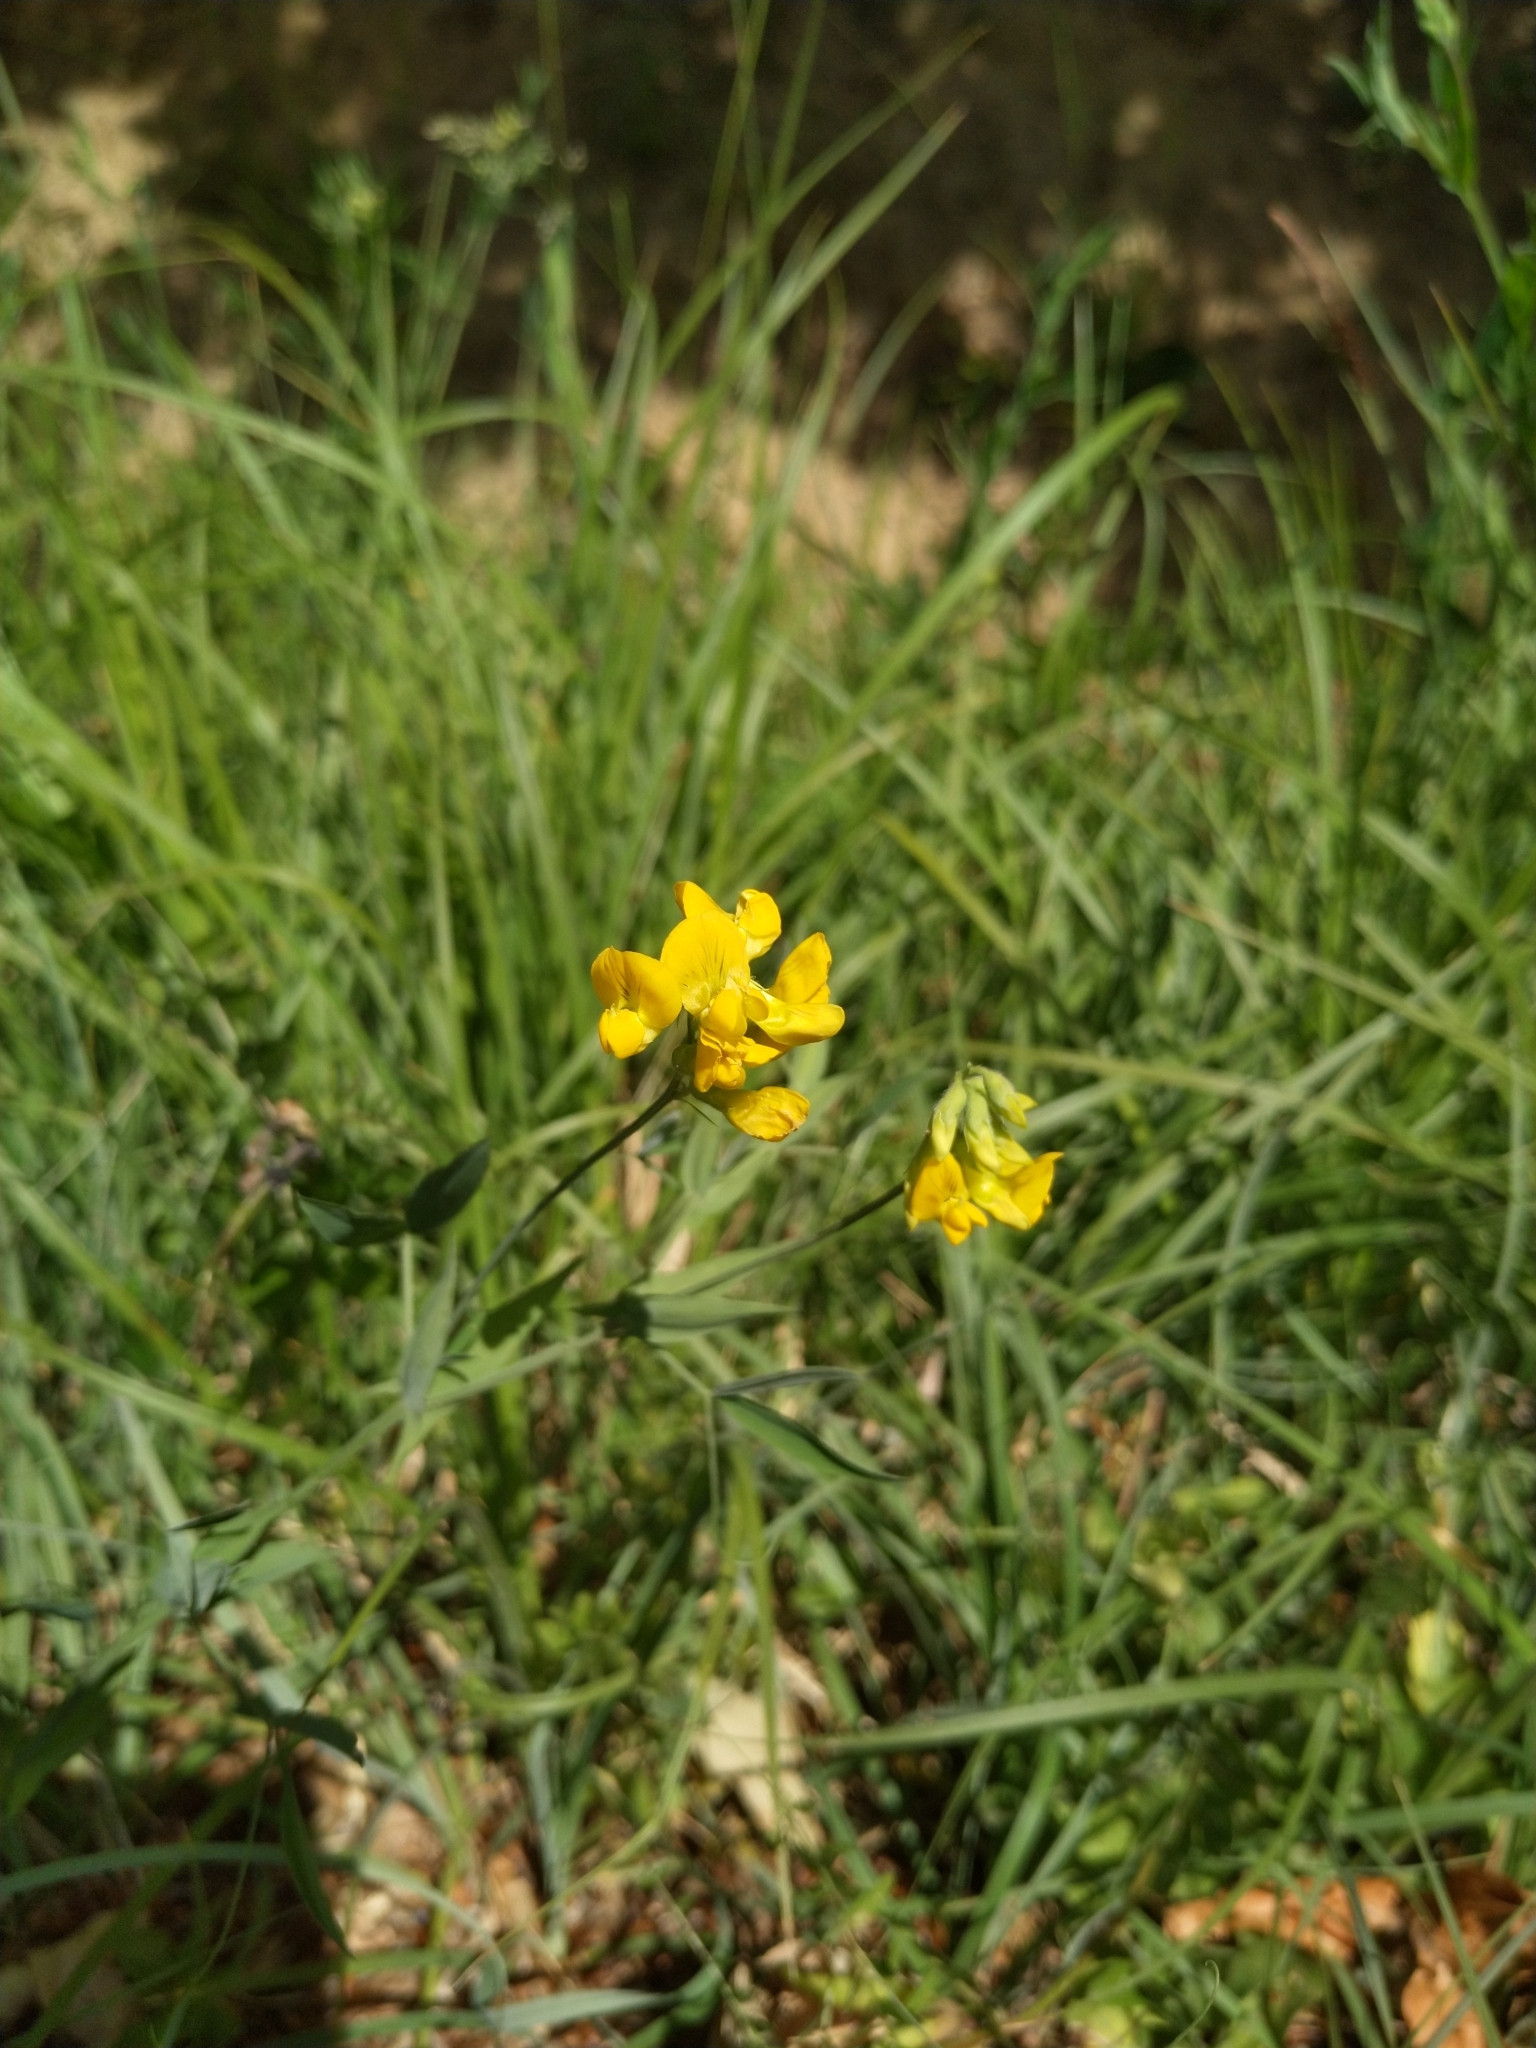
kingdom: Plantae
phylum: Tracheophyta
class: Magnoliopsida
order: Fabales
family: Fabaceae
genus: Lathyrus
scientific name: Lathyrus pratensis
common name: Meadow vetchling
